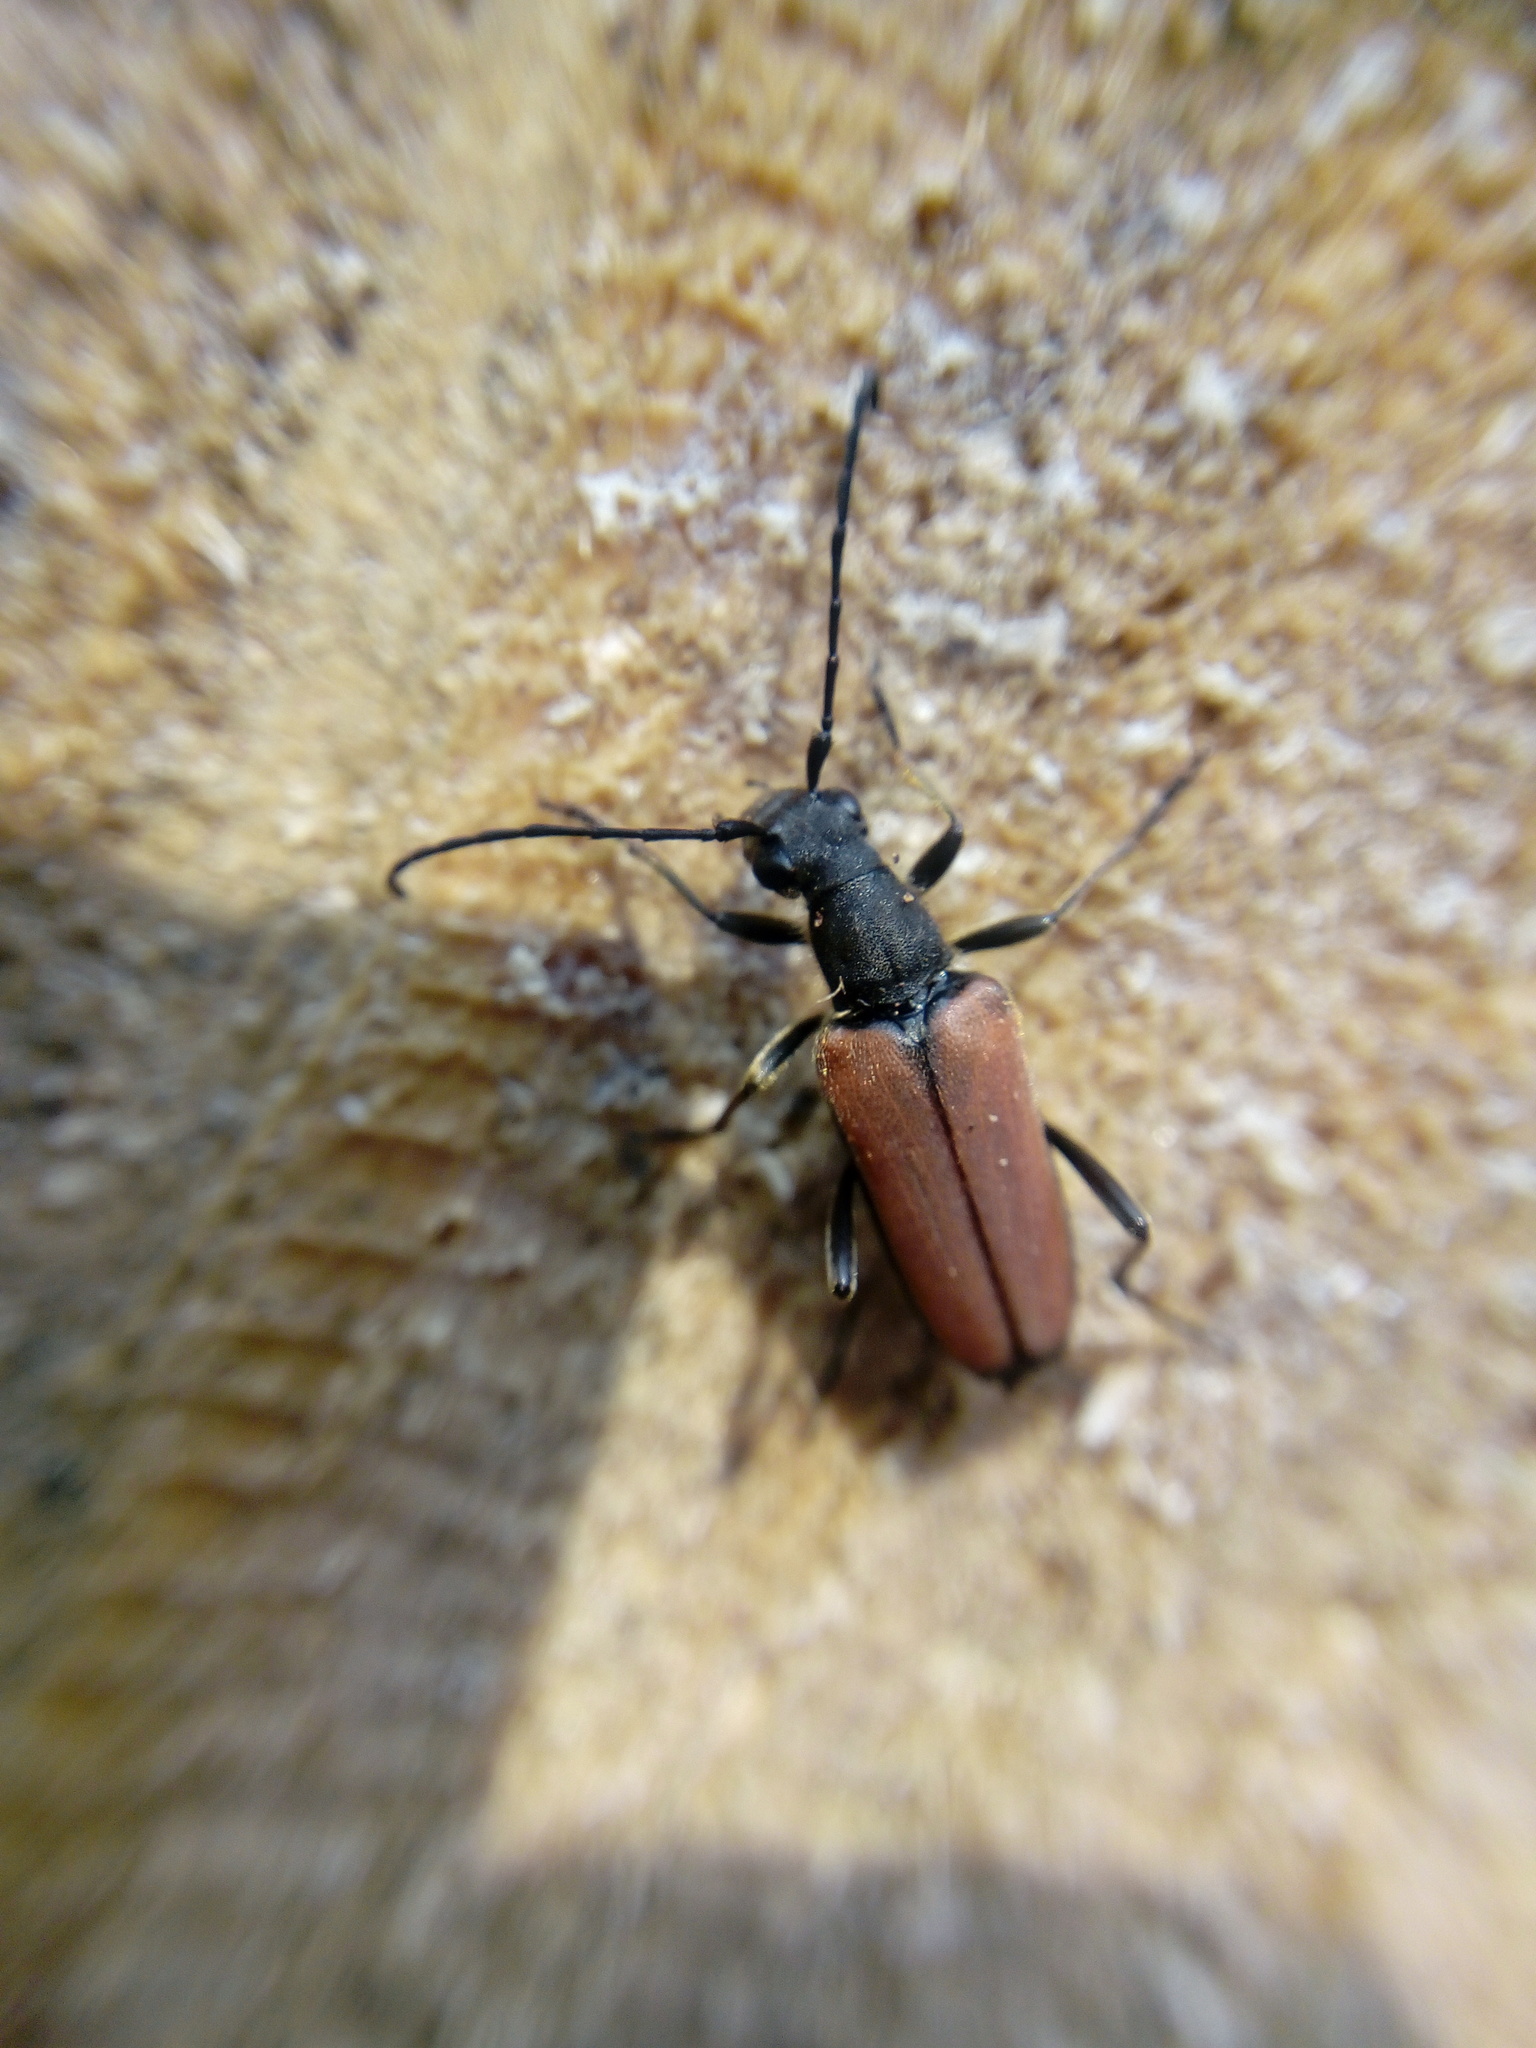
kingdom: Animalia
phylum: Arthropoda
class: Insecta
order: Coleoptera
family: Cerambycidae
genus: Anastrangalia
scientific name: Anastrangalia dubia
